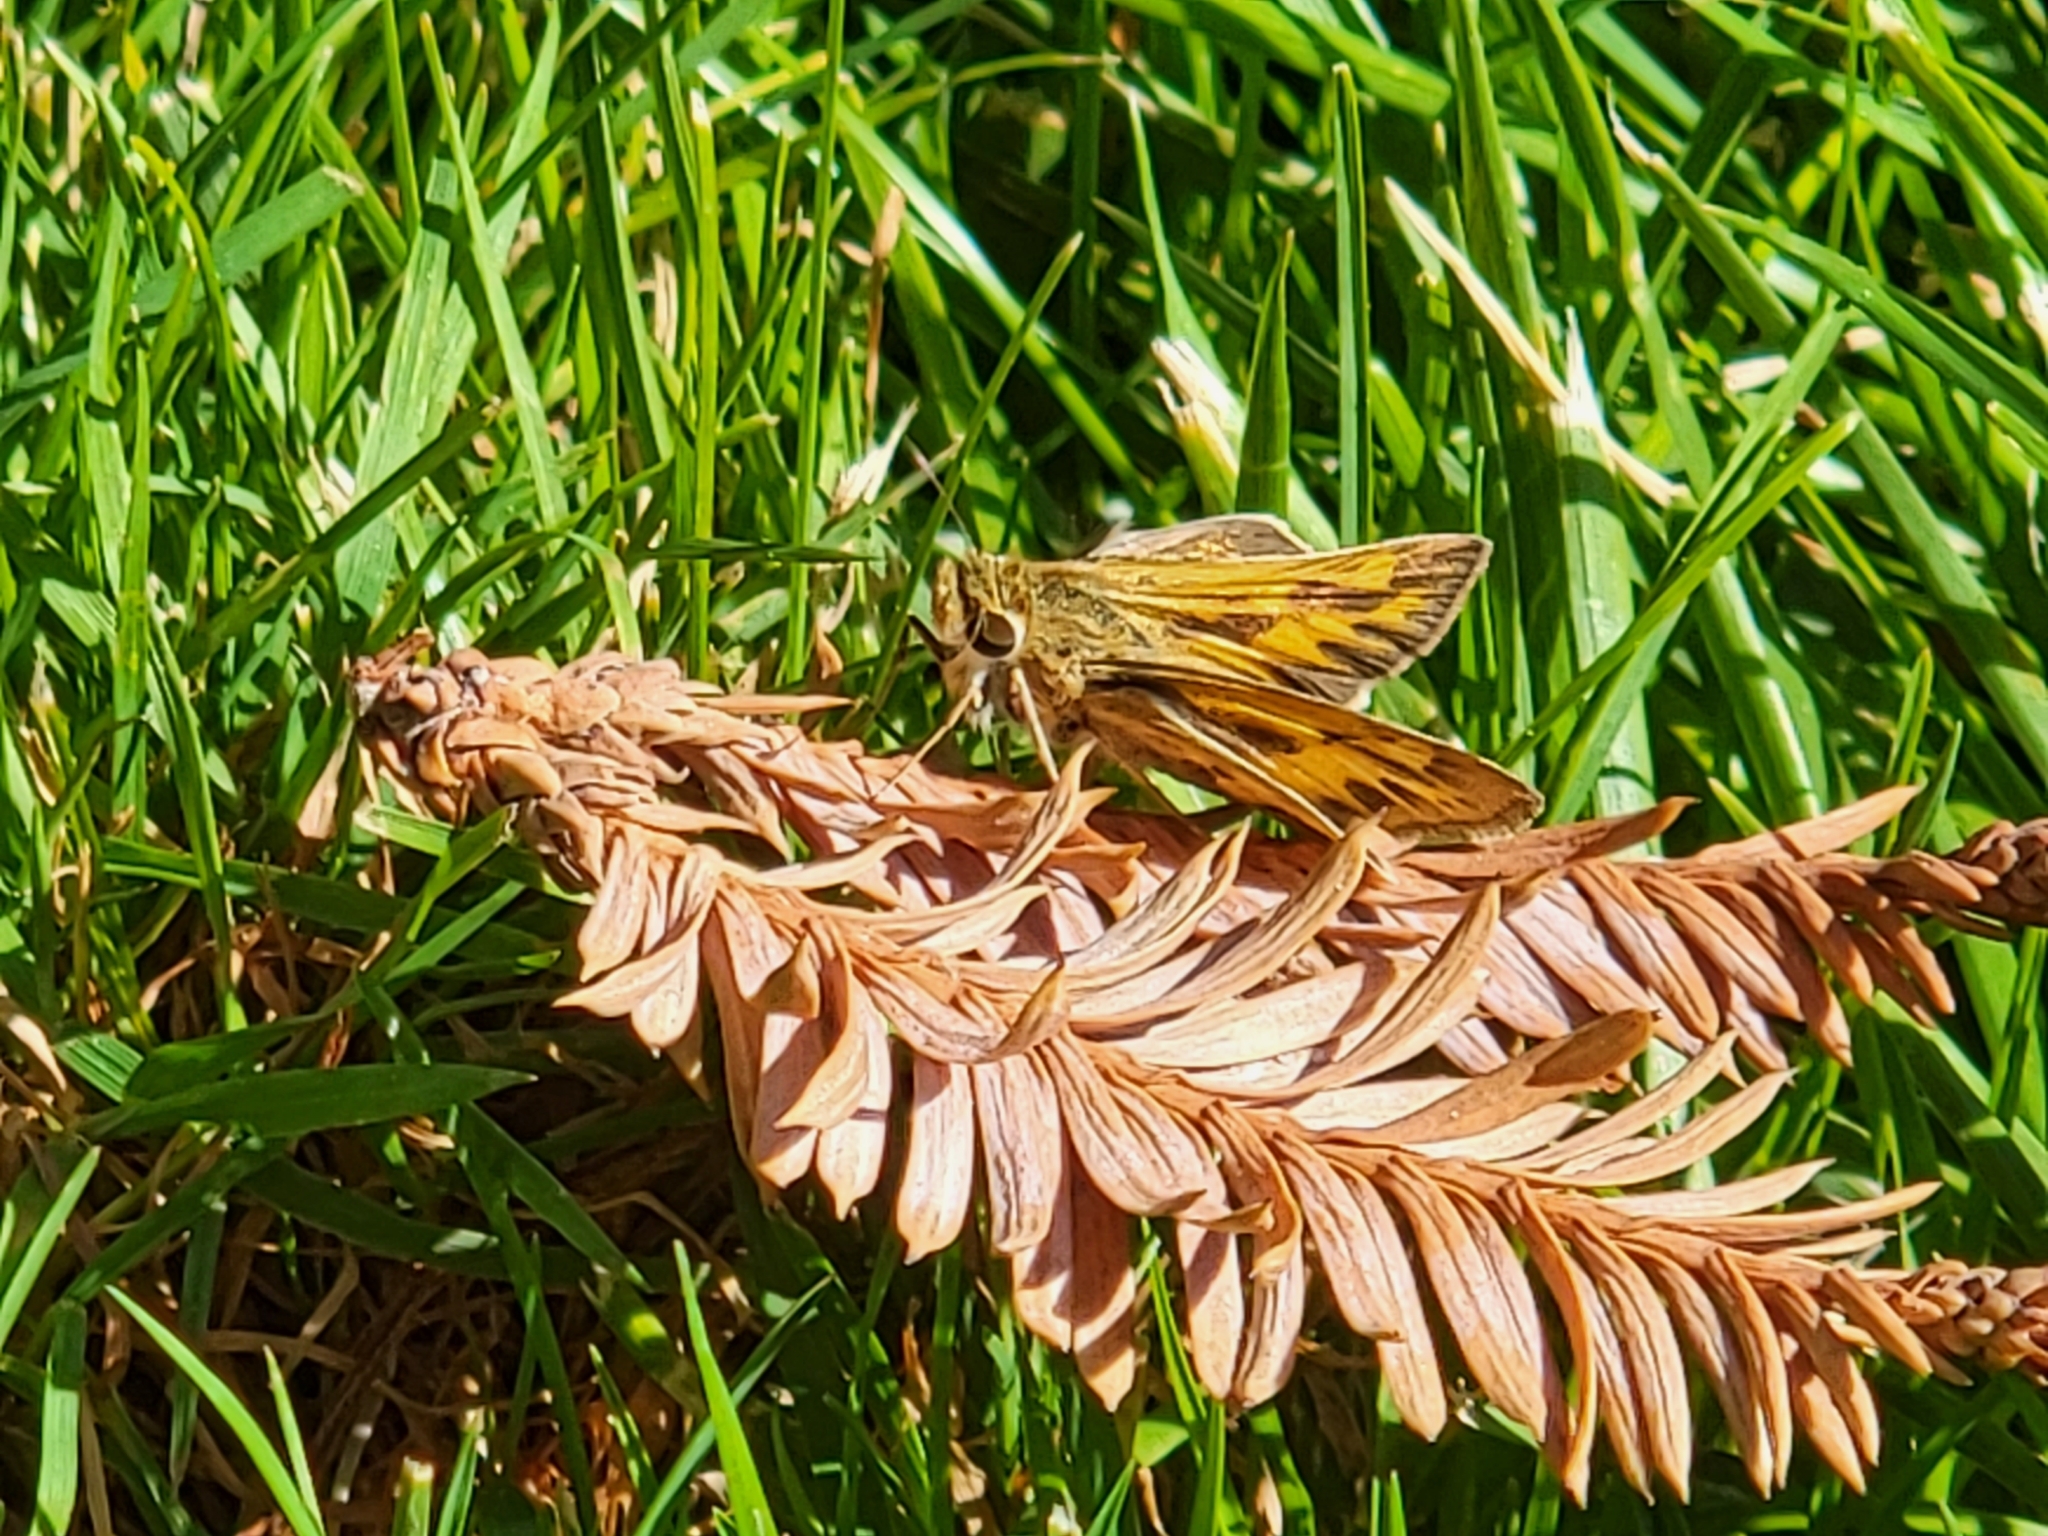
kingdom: Animalia
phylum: Arthropoda
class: Insecta
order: Lepidoptera
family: Hesperiidae
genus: Hylephila
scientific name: Hylephila phyleus
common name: Fiery skipper
